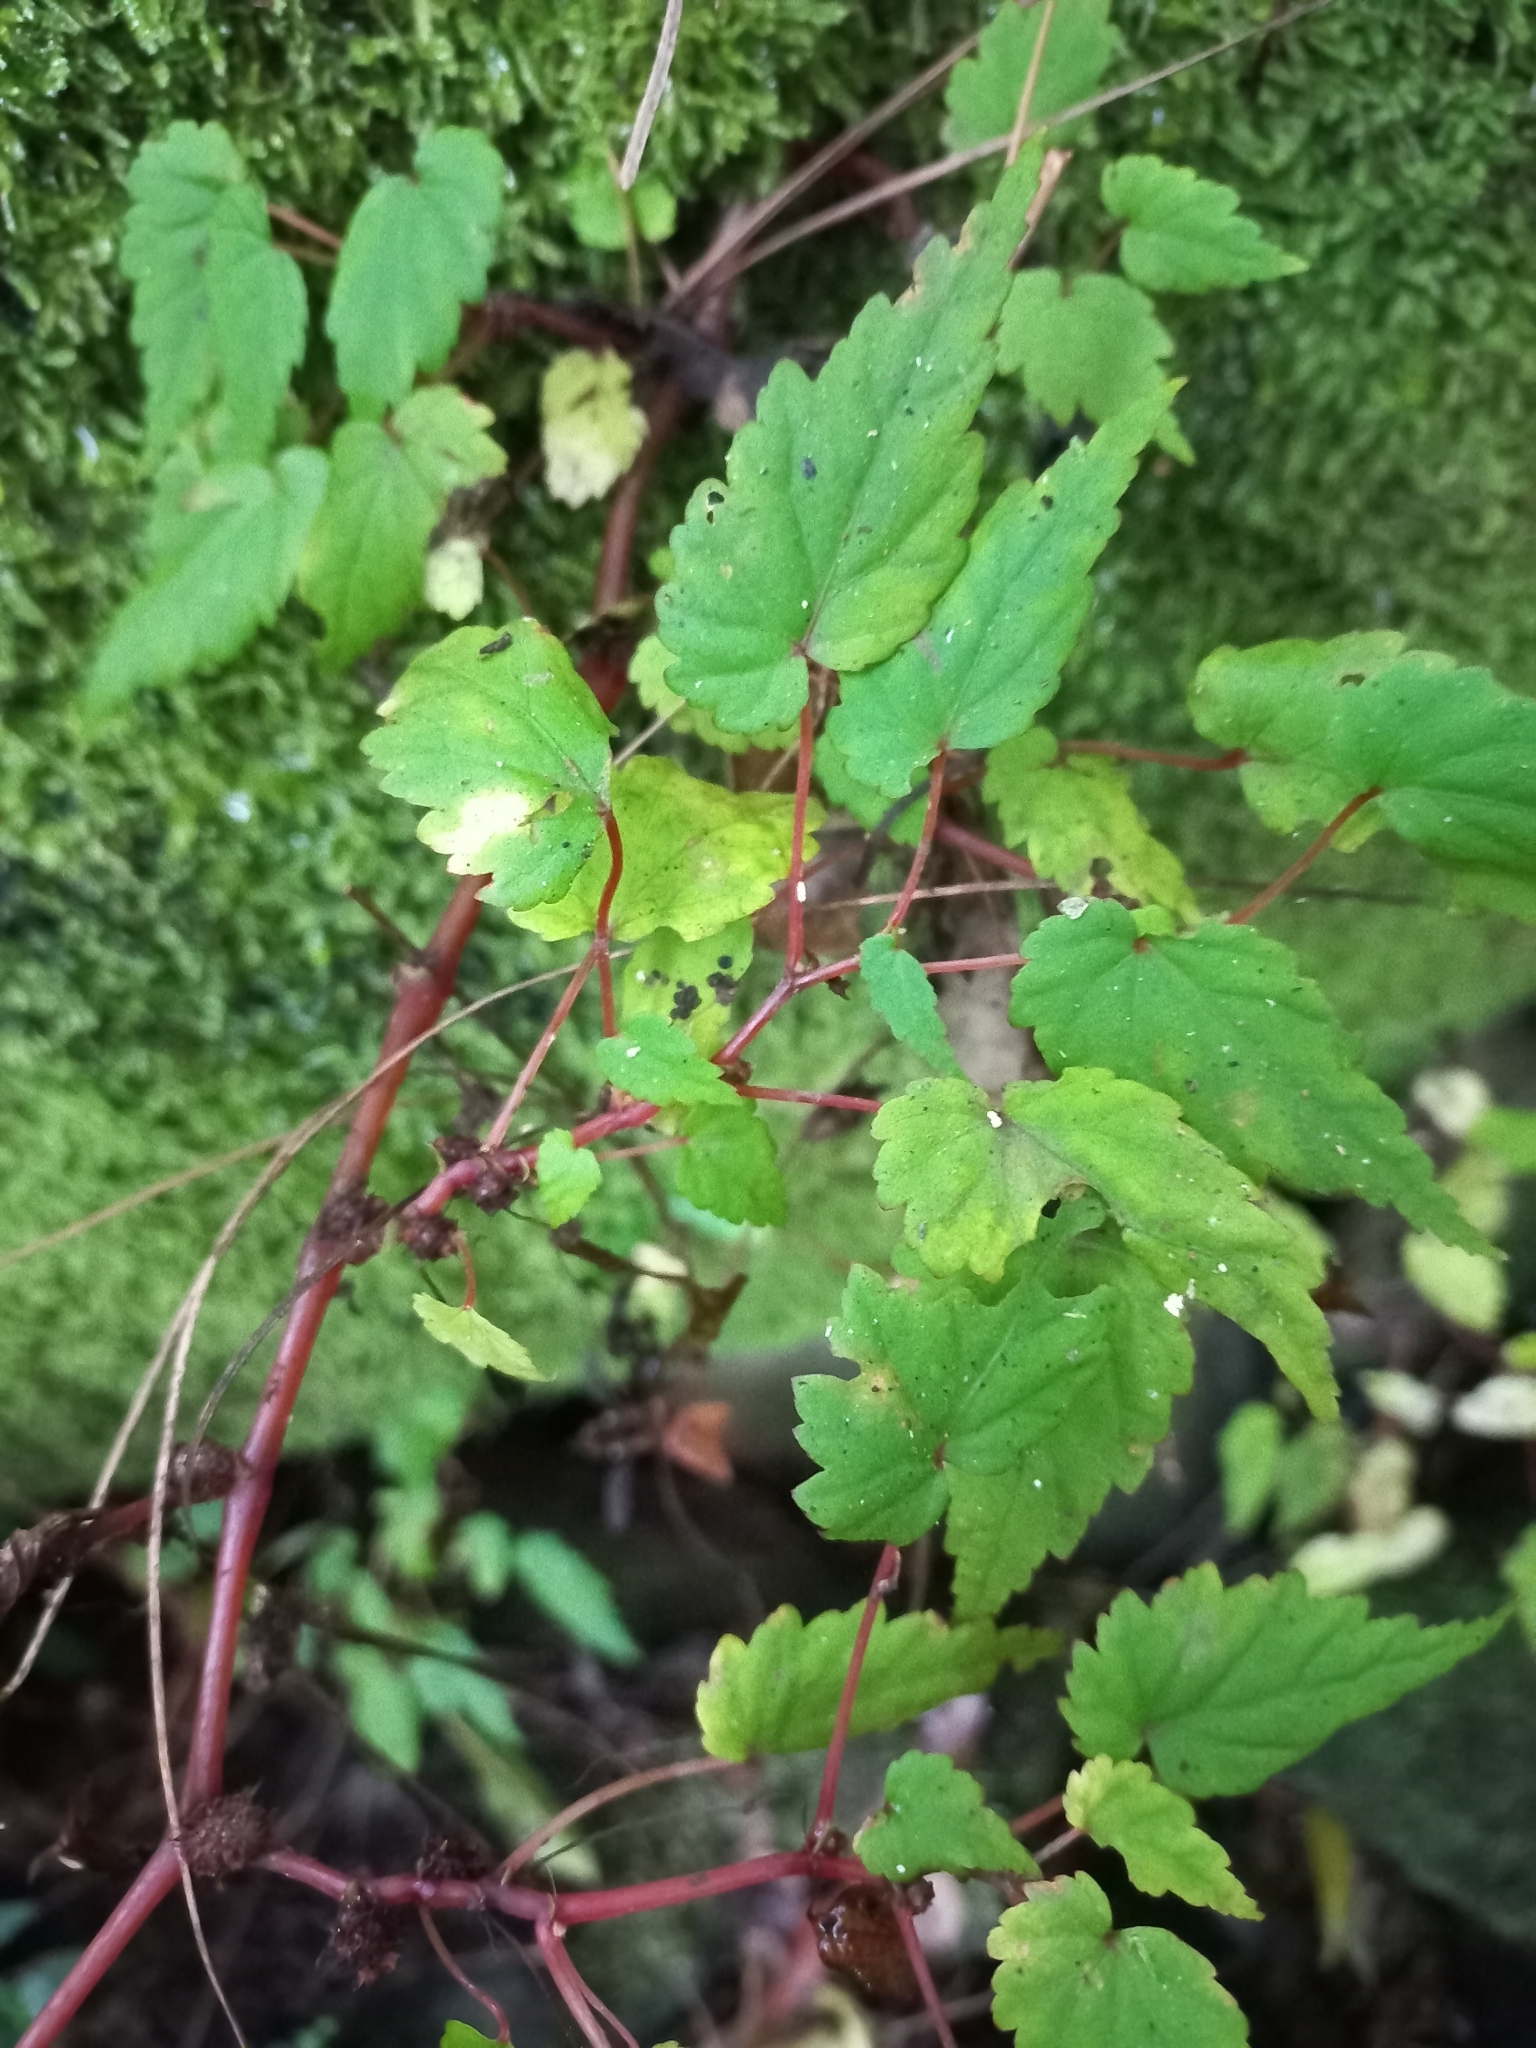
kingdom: Plantae
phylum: Tracheophyta
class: Magnoliopsida
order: Cucurbitales
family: Begoniaceae
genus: Begonia
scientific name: Begonia sutherlandii
